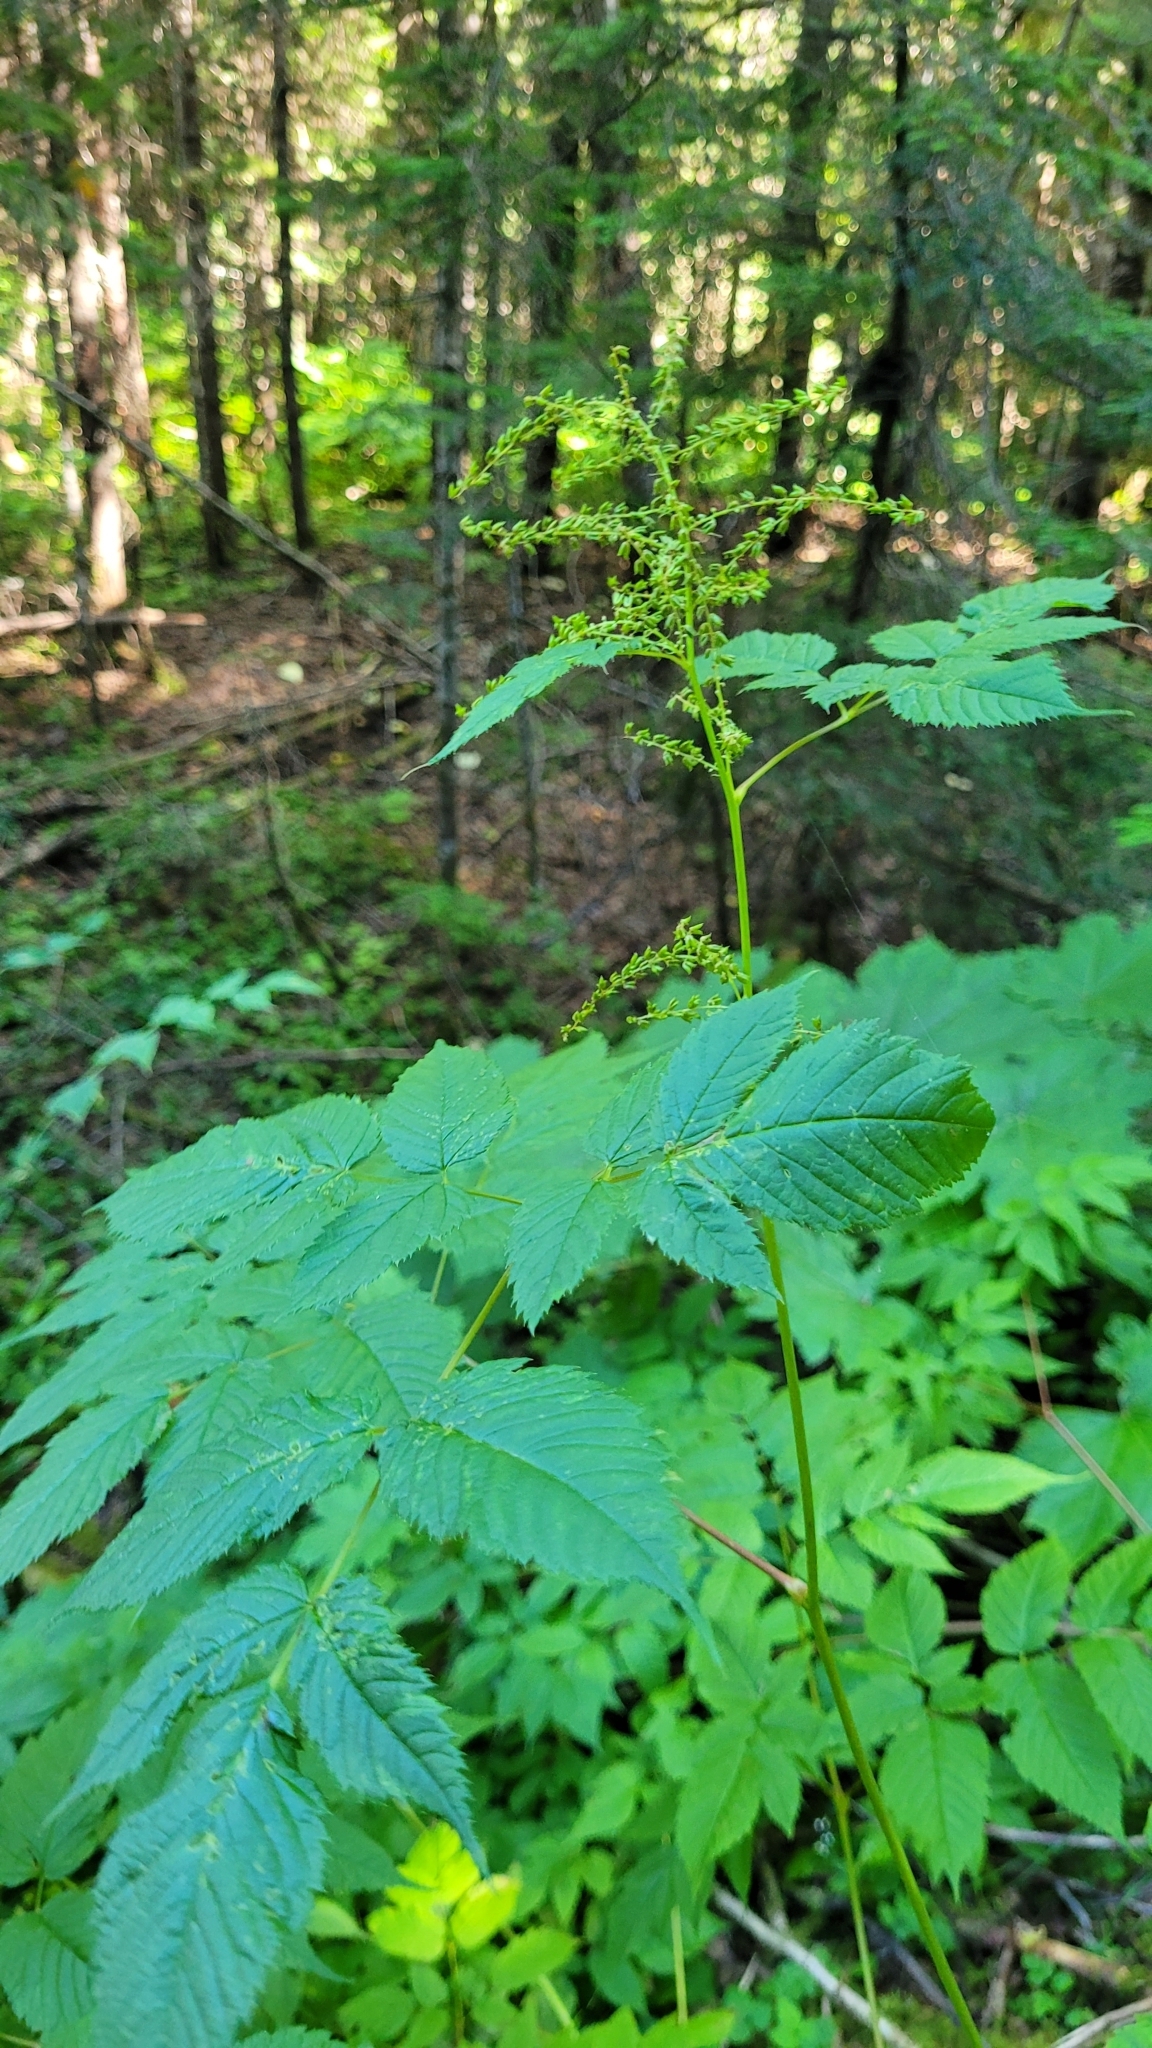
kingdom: Plantae
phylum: Tracheophyta
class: Magnoliopsida
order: Rosales
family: Rosaceae
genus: Aruncus
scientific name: Aruncus dioicus
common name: Buck's-beard
